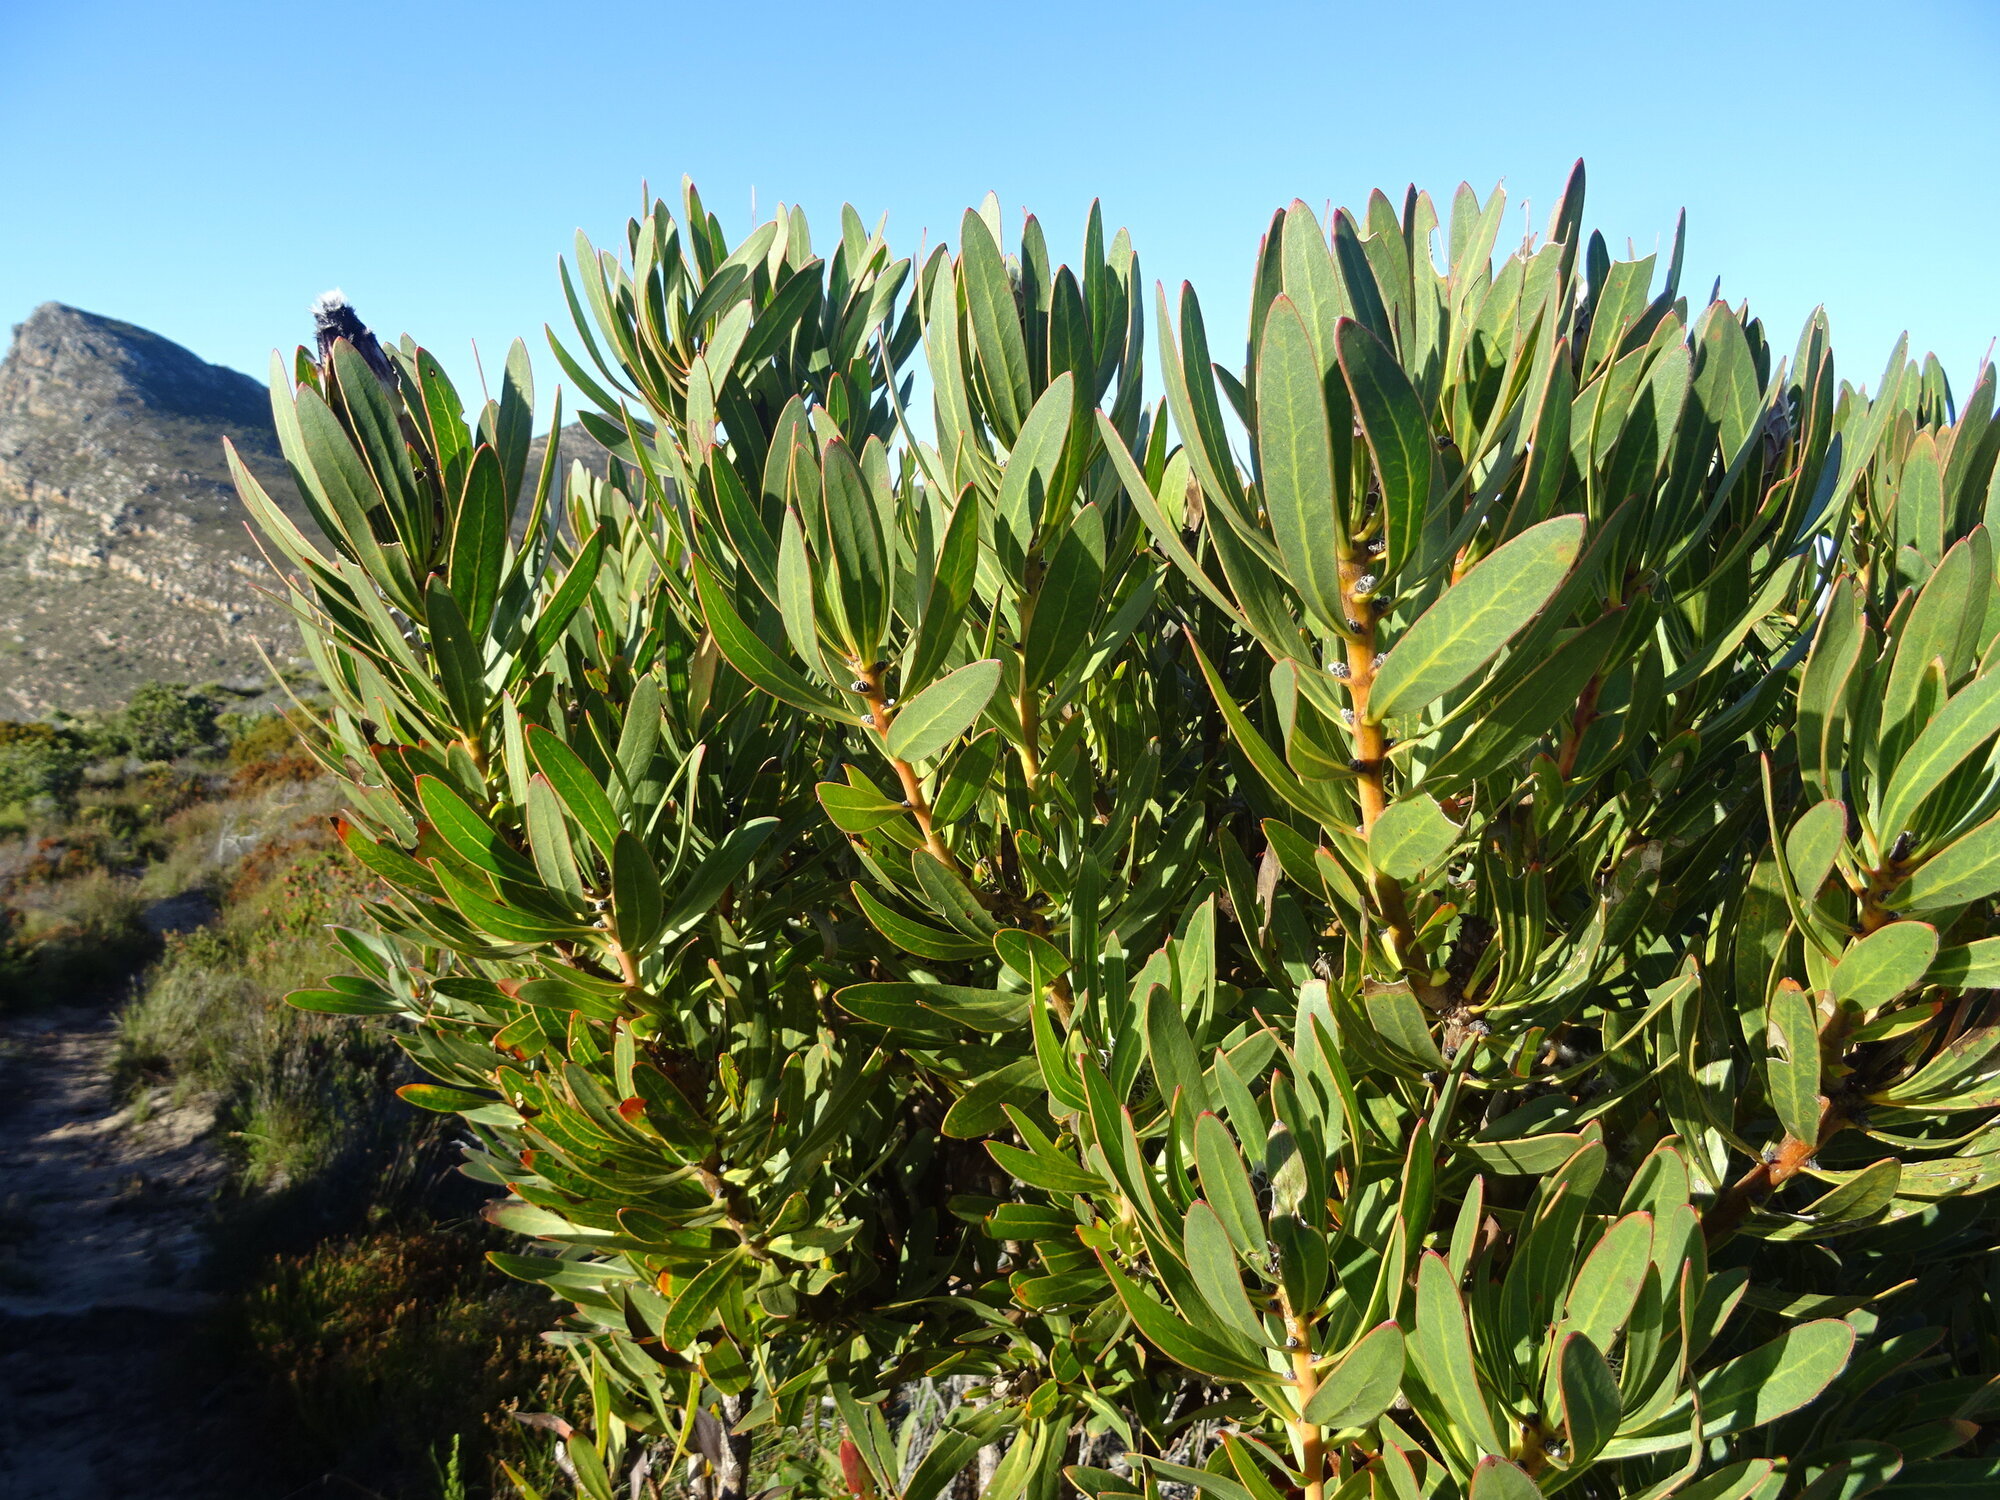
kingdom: Plantae
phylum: Tracheophyta
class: Magnoliopsida
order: Proteales
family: Proteaceae
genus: Protea
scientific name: Protea lepidocarpodendron
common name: Black-bearded protea
